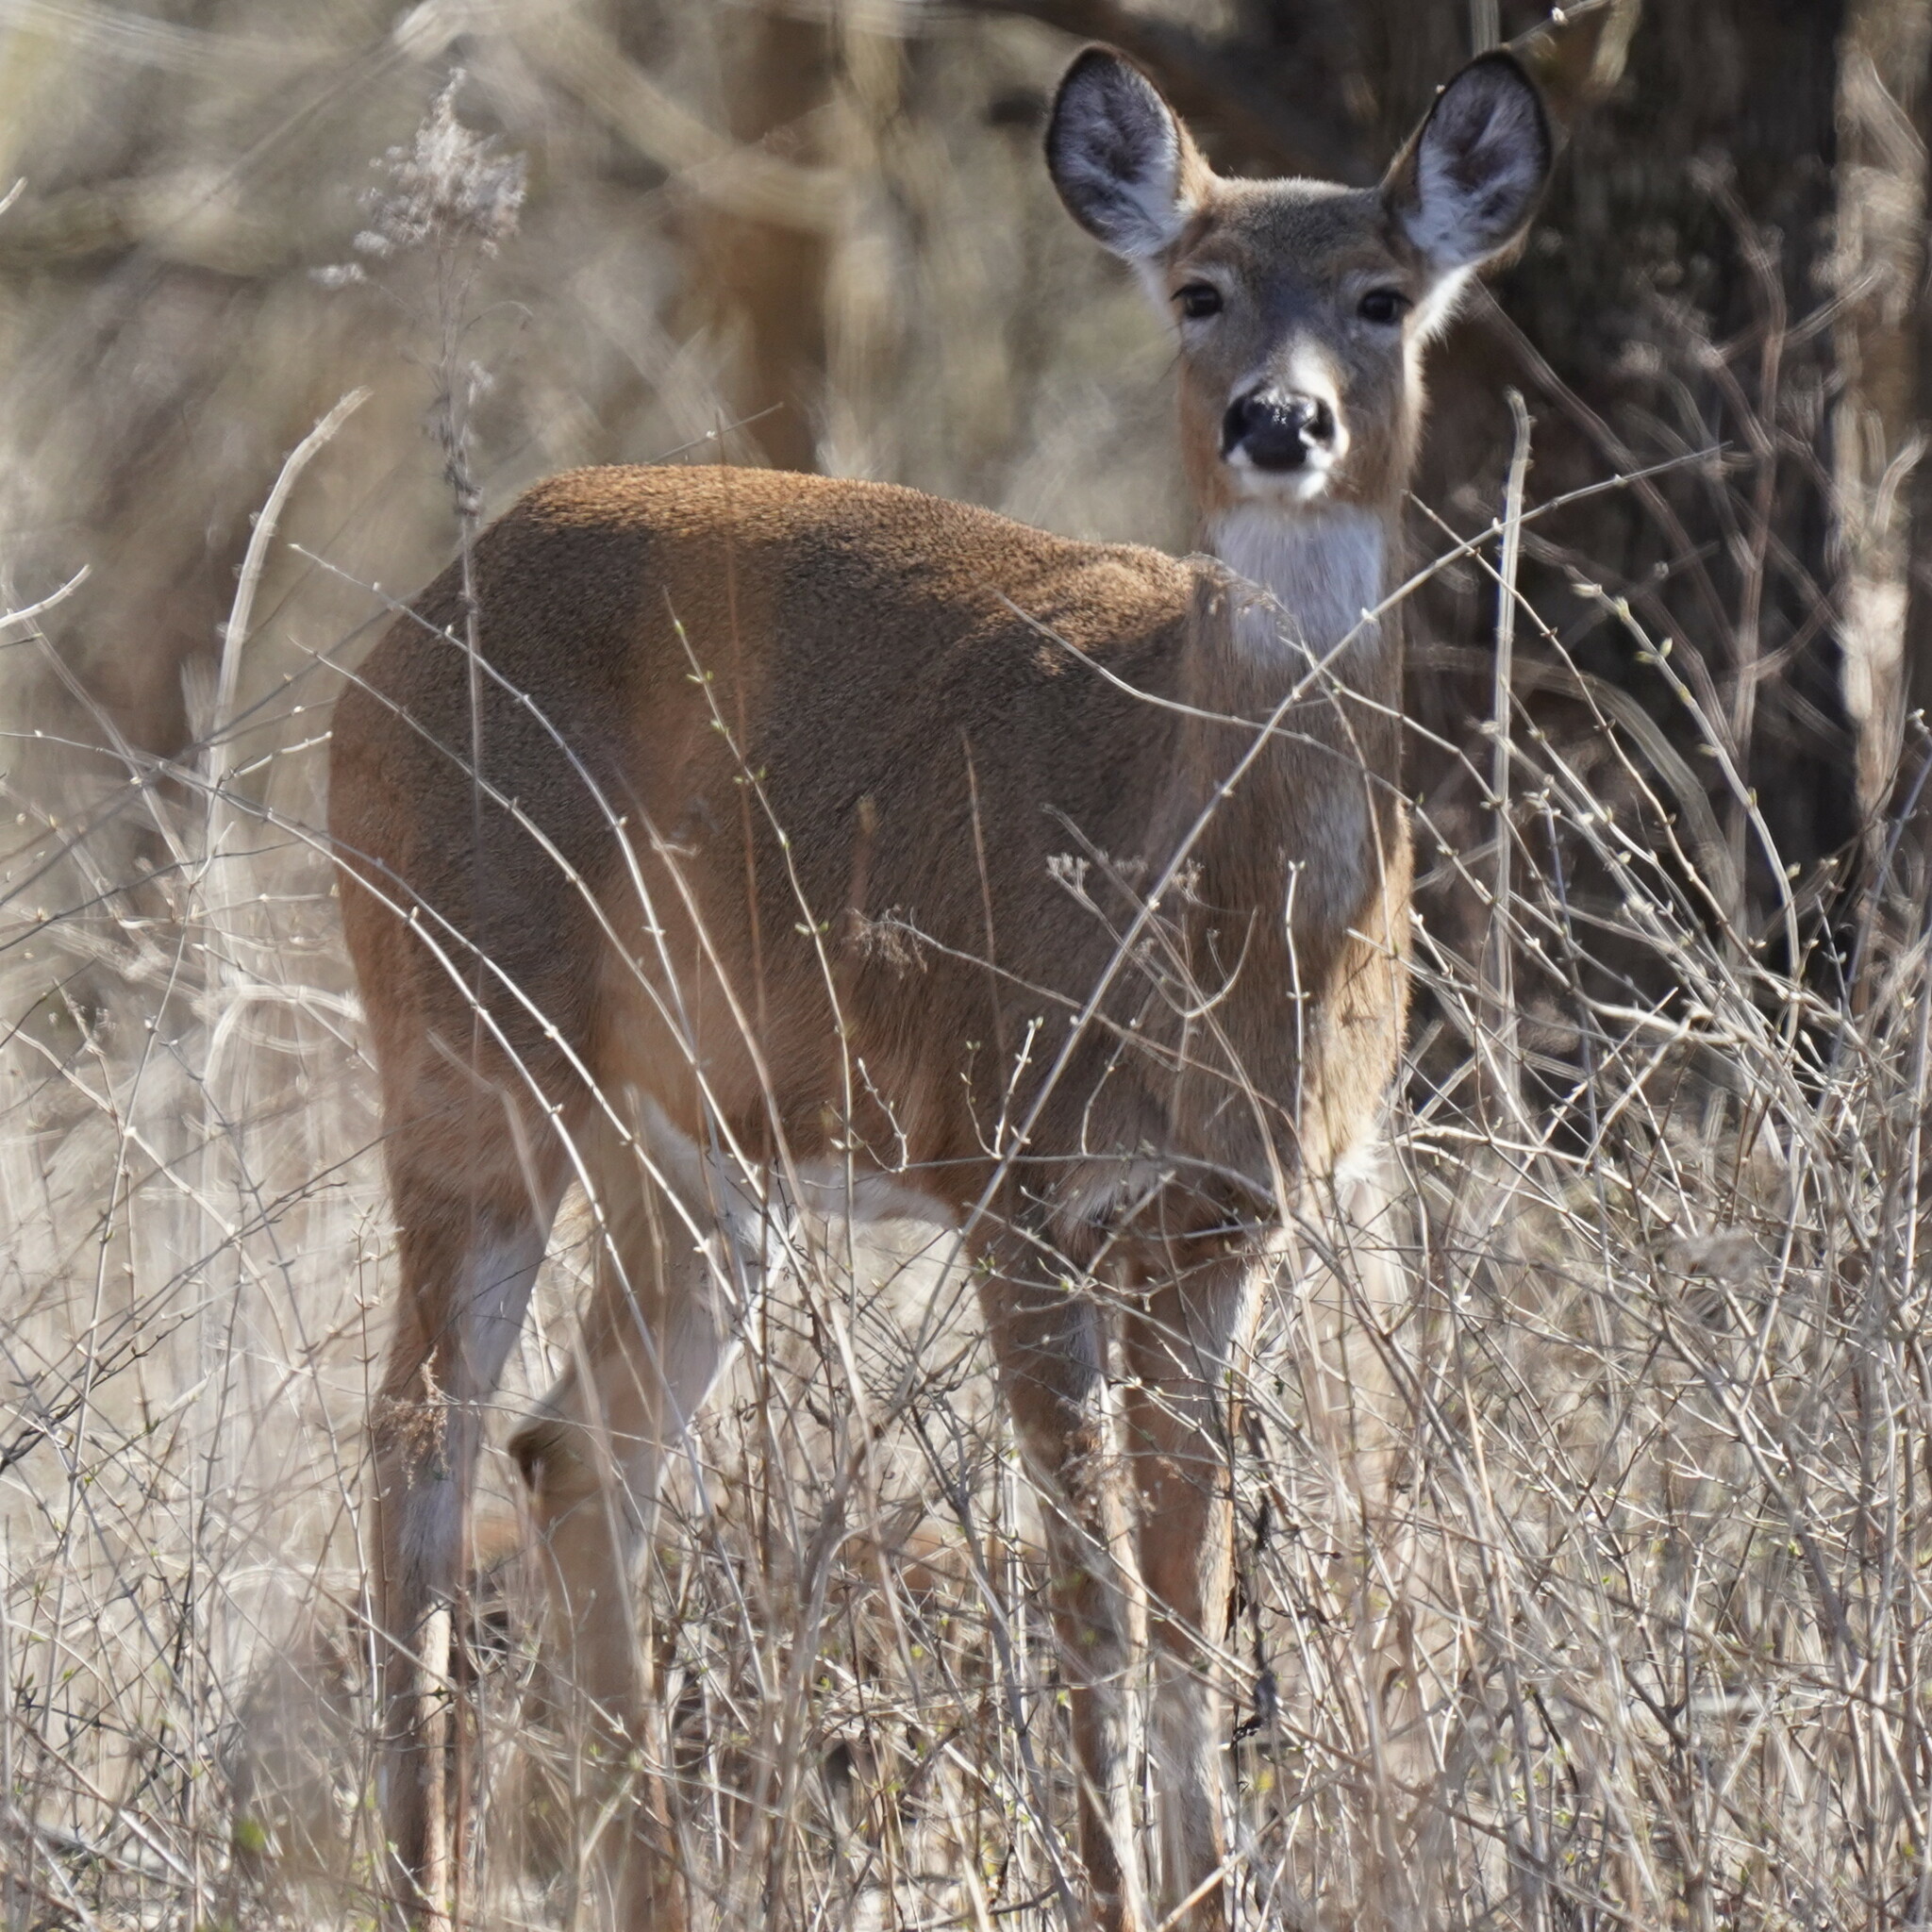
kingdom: Animalia
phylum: Chordata
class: Mammalia
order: Artiodactyla
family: Cervidae
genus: Odocoileus
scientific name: Odocoileus virginianus
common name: White-tailed deer
